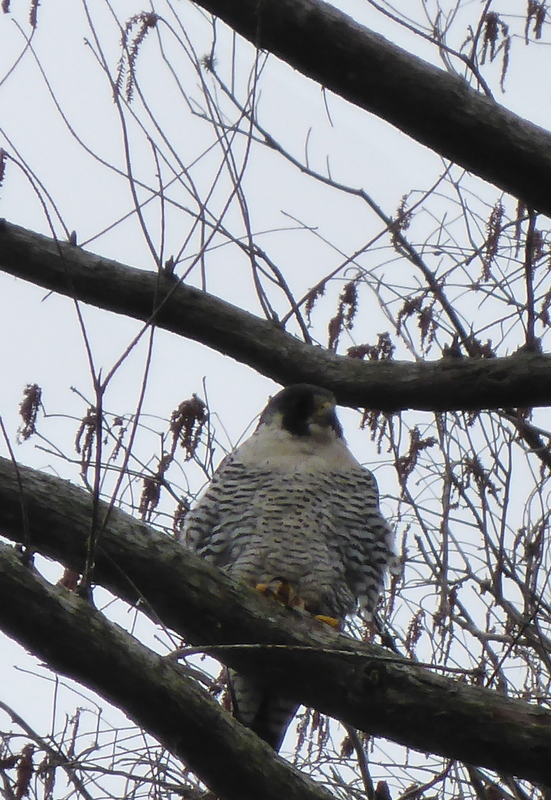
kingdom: Animalia
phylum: Chordata
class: Aves
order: Falconiformes
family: Falconidae
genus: Falco
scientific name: Falco peregrinus
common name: Peregrine falcon
